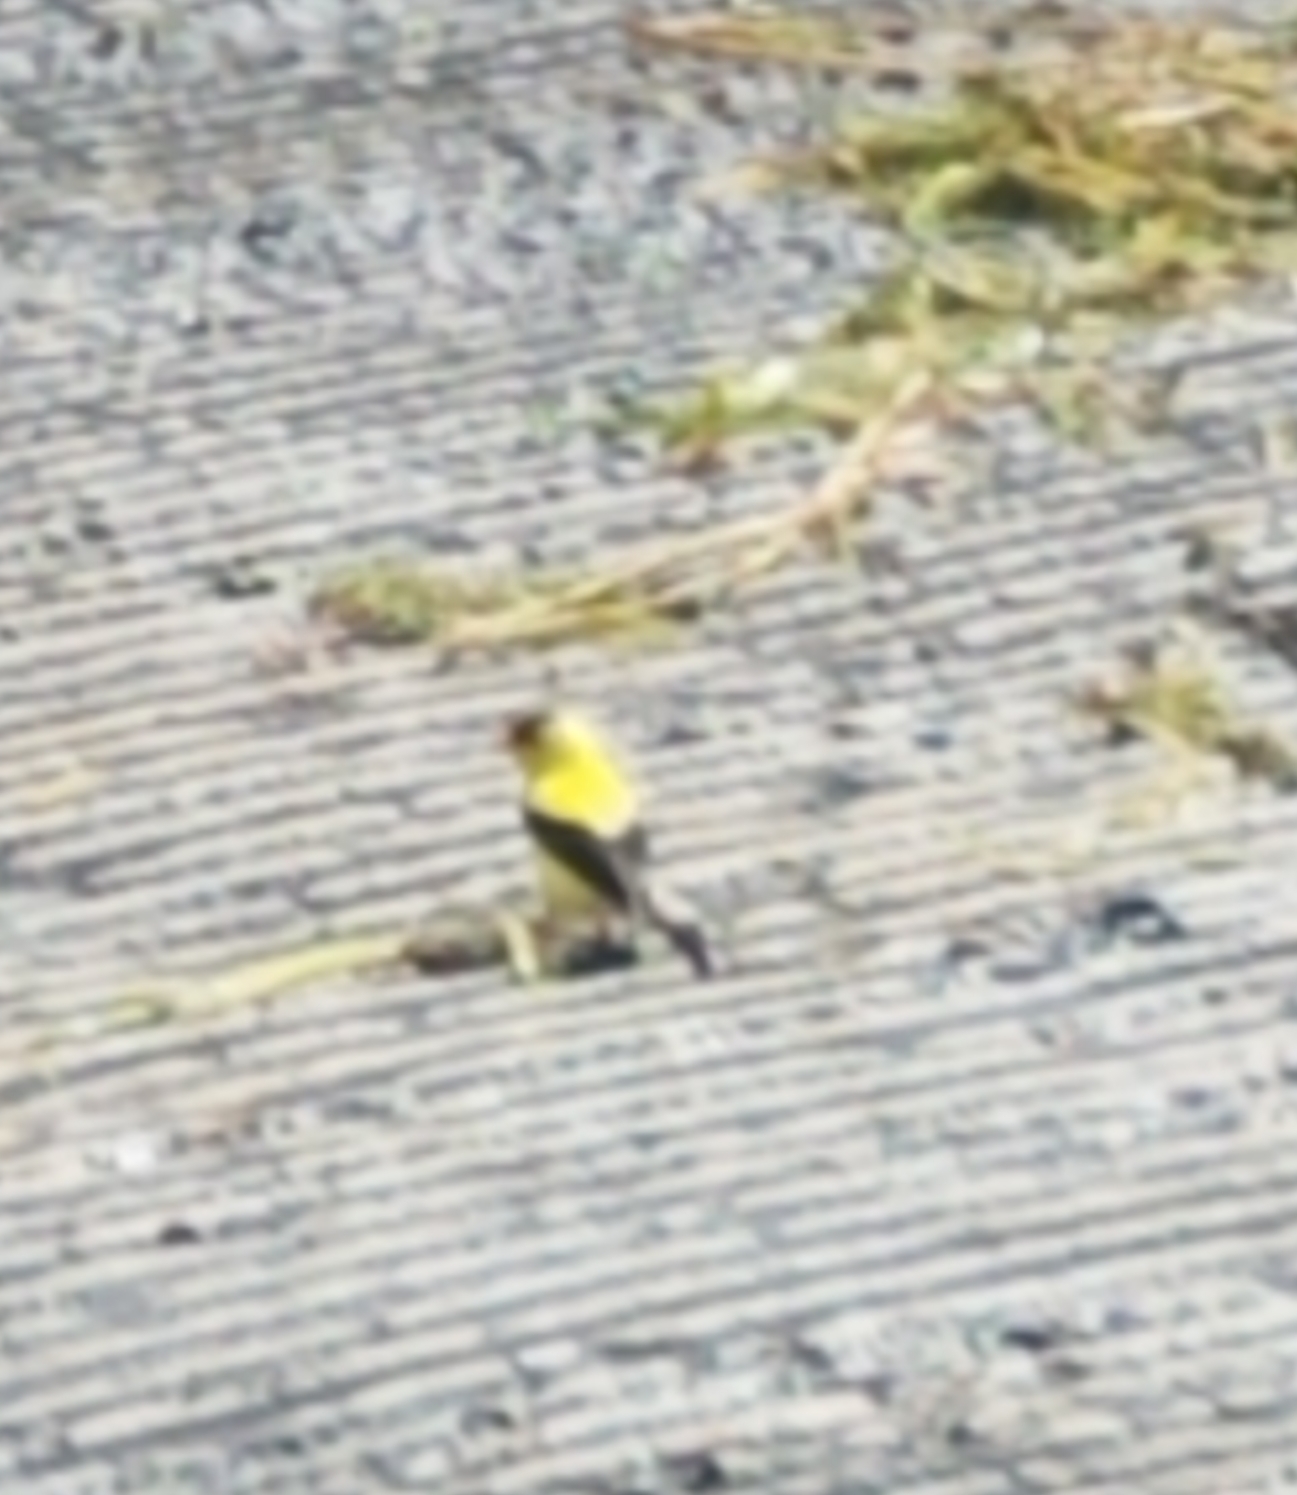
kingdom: Animalia
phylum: Chordata
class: Aves
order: Passeriformes
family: Fringillidae
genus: Spinus
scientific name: Spinus tristis
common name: American goldfinch
